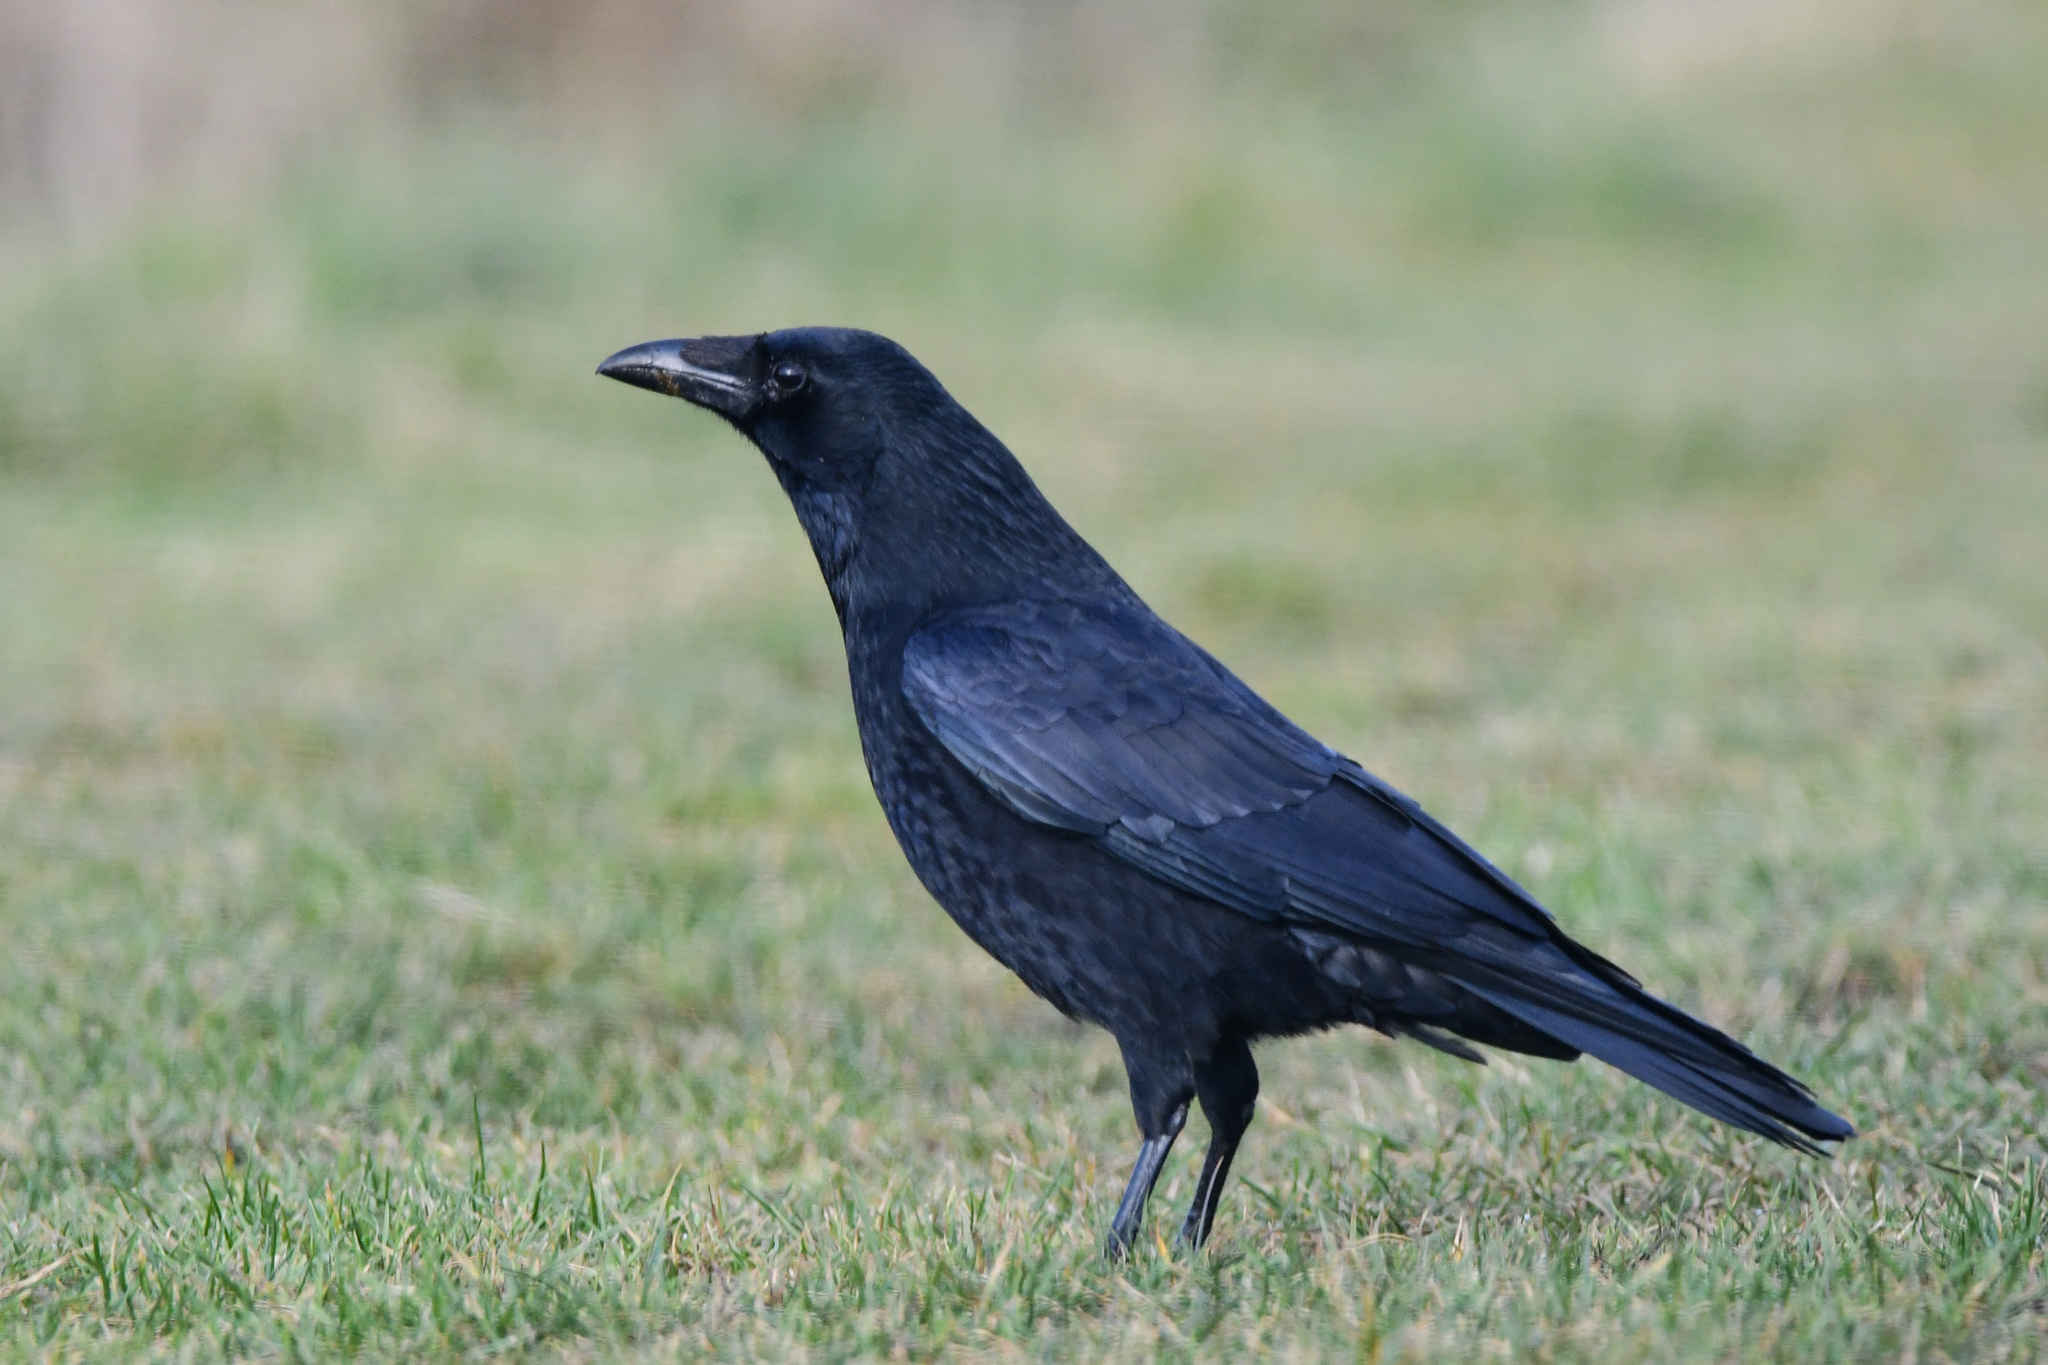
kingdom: Animalia
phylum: Chordata
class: Aves
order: Passeriformes
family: Corvidae
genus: Corvus
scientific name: Corvus corone
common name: Carrion crow
